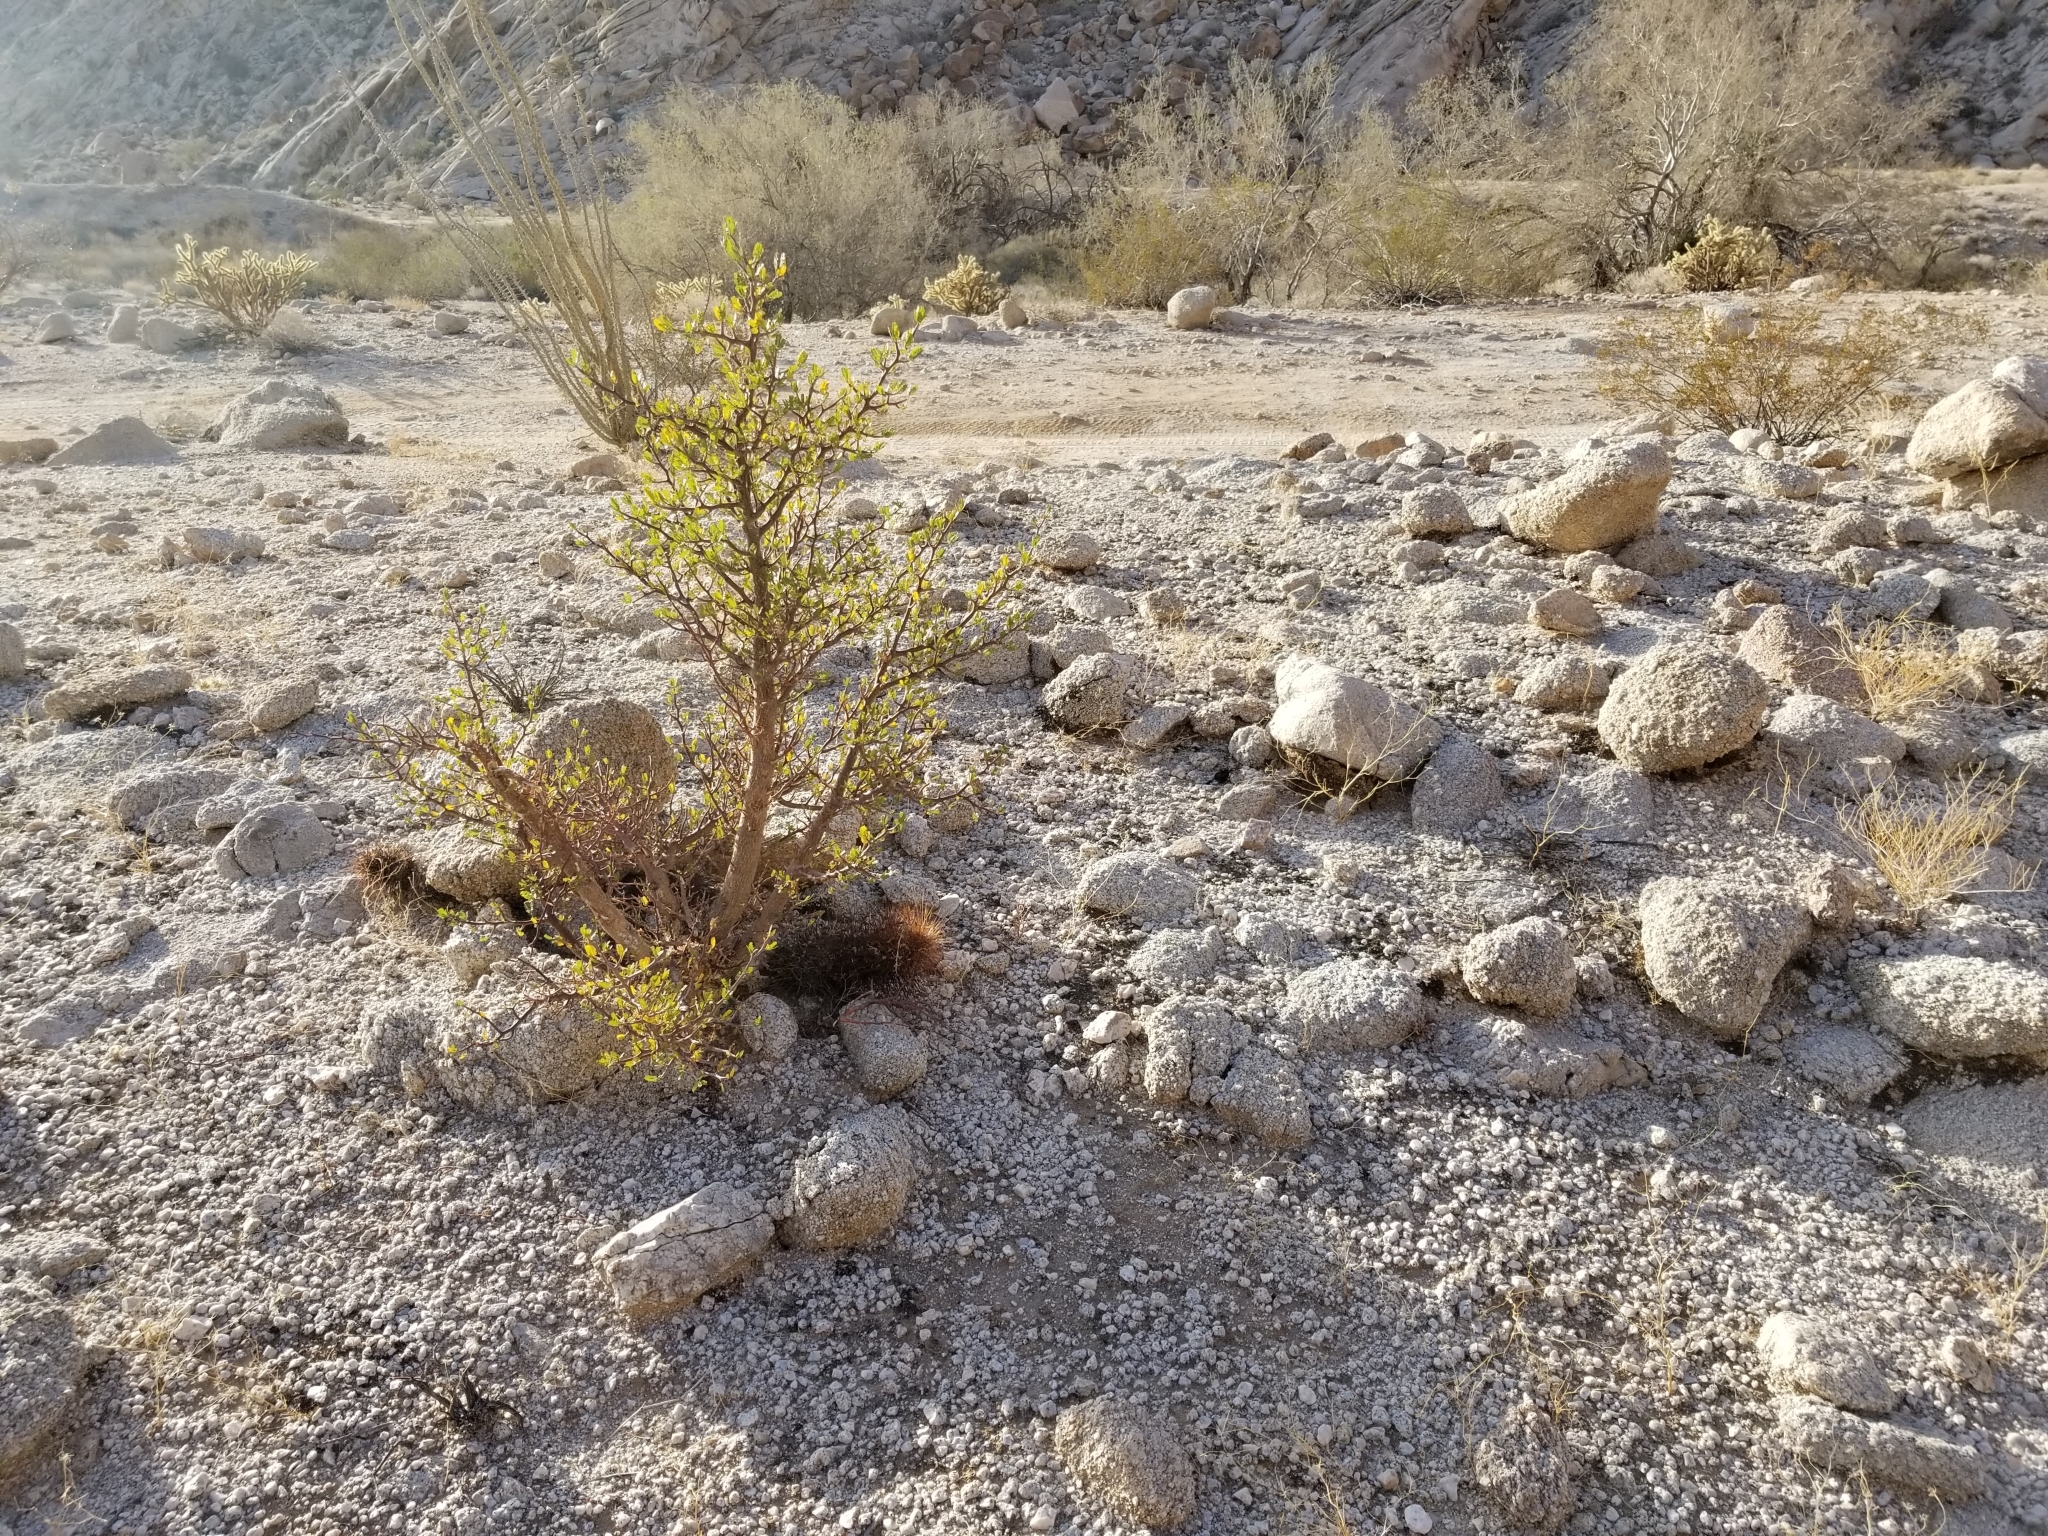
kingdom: Plantae
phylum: Tracheophyta
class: Magnoliopsida
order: Caryophyllales
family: Cactaceae
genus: Echinocereus
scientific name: Echinocereus engelmannii
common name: Engelmann's hedgehog cactus
